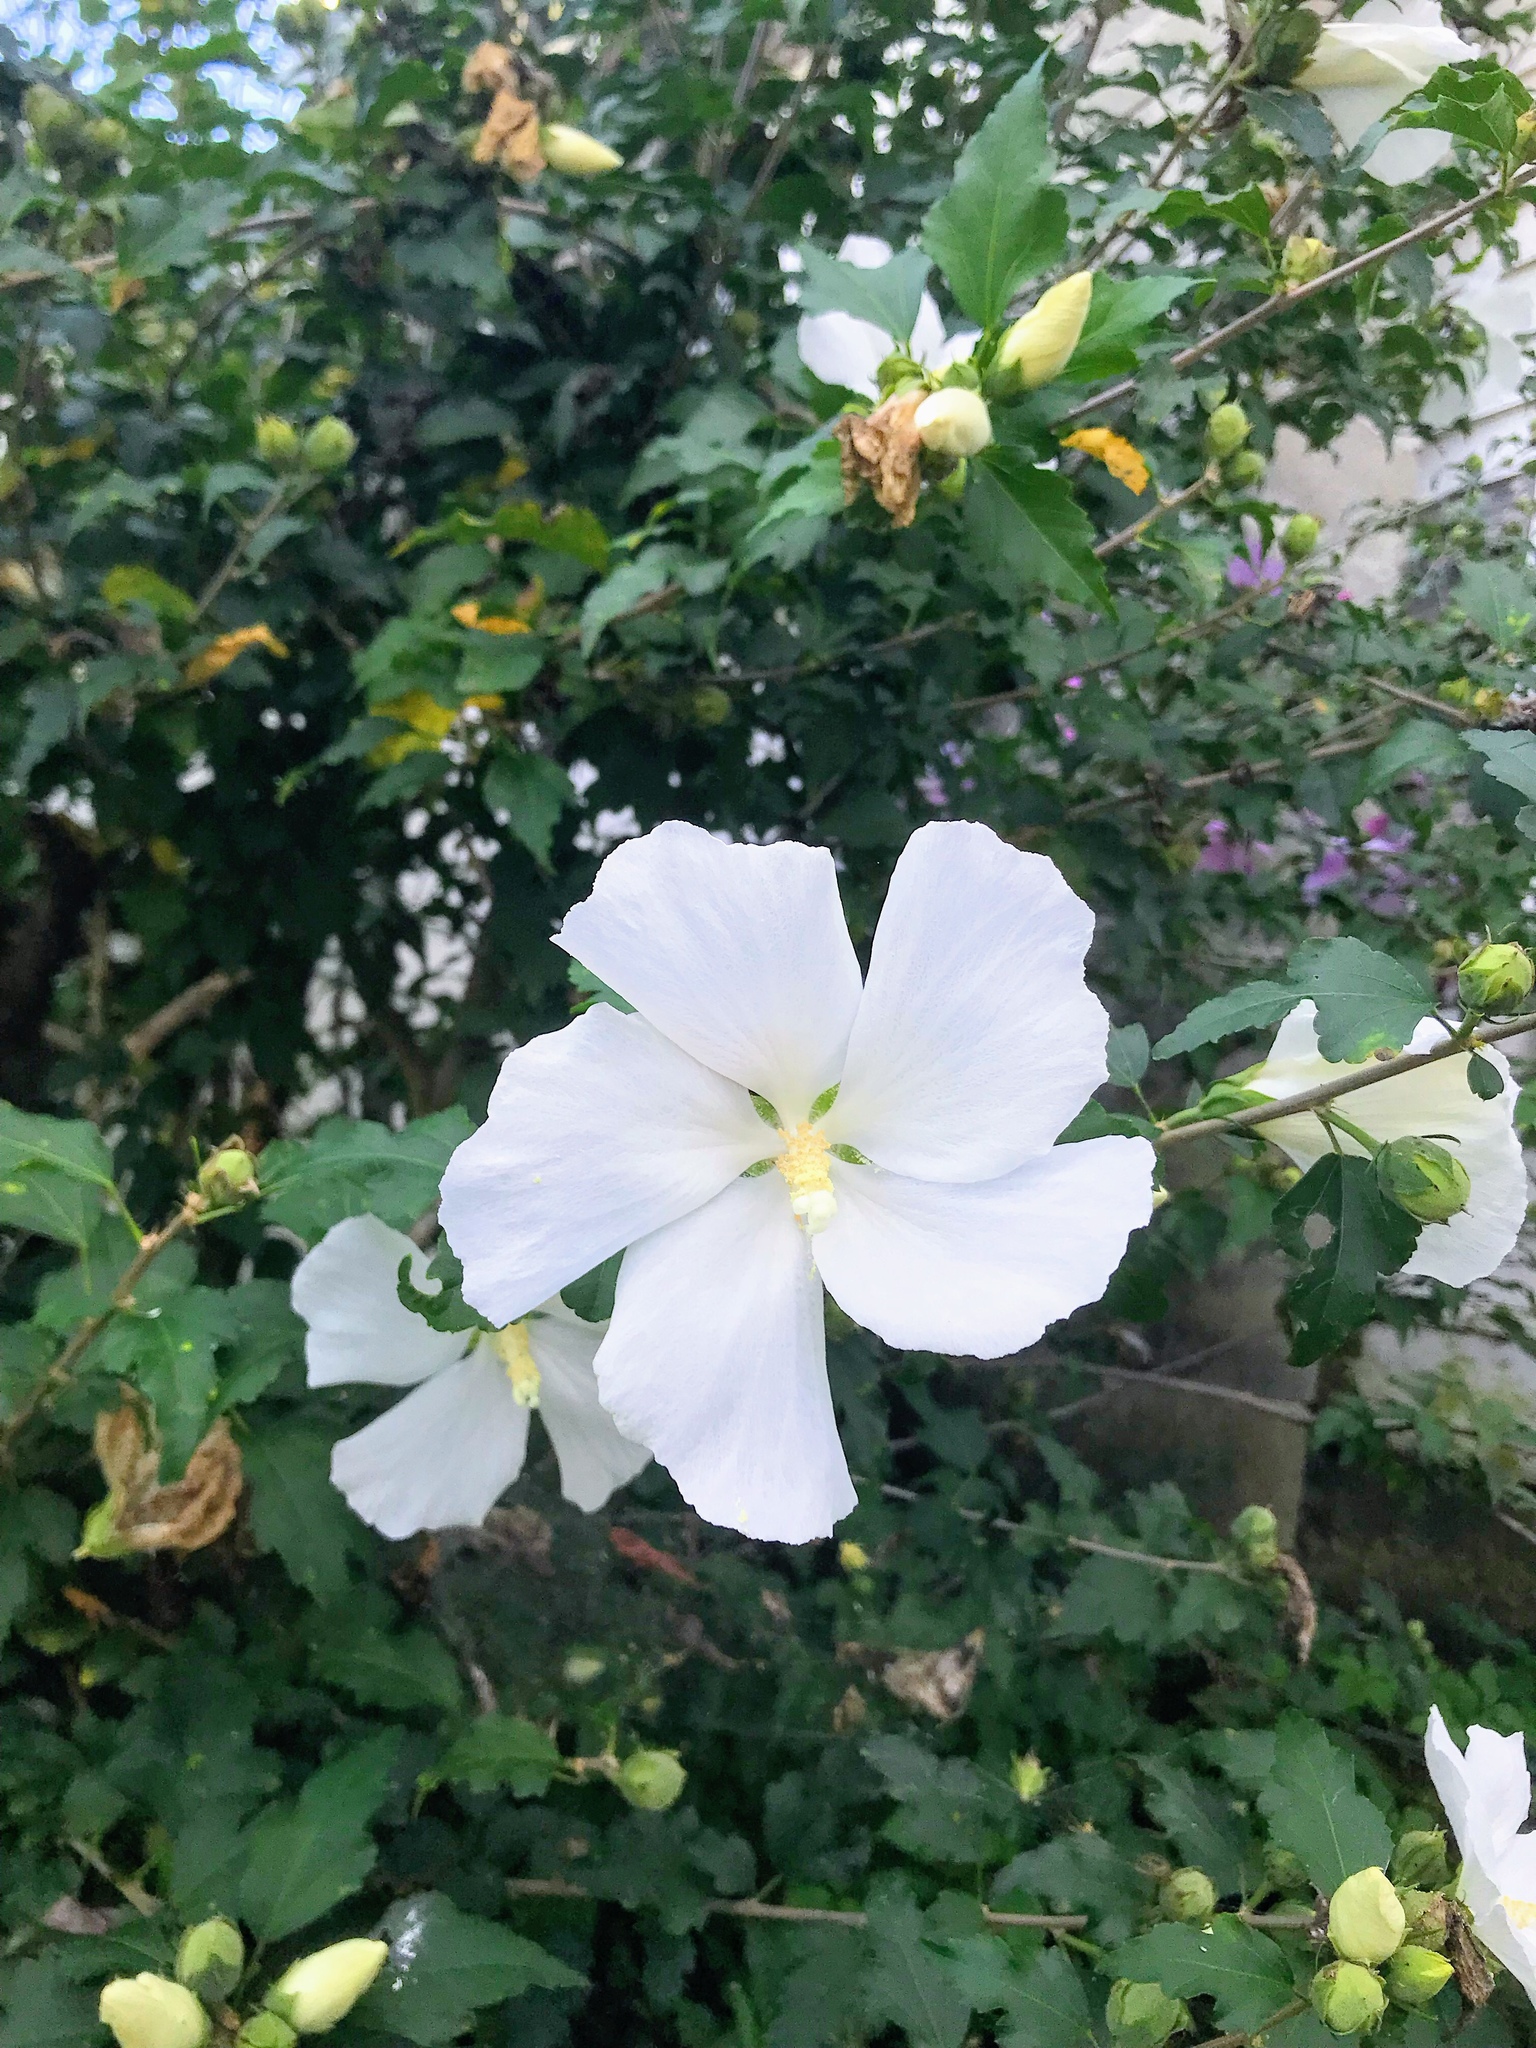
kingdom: Plantae
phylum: Tracheophyta
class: Magnoliopsida
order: Malvales
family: Malvaceae
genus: Hibiscus
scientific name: Hibiscus syriacus
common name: Syrian ketmia
